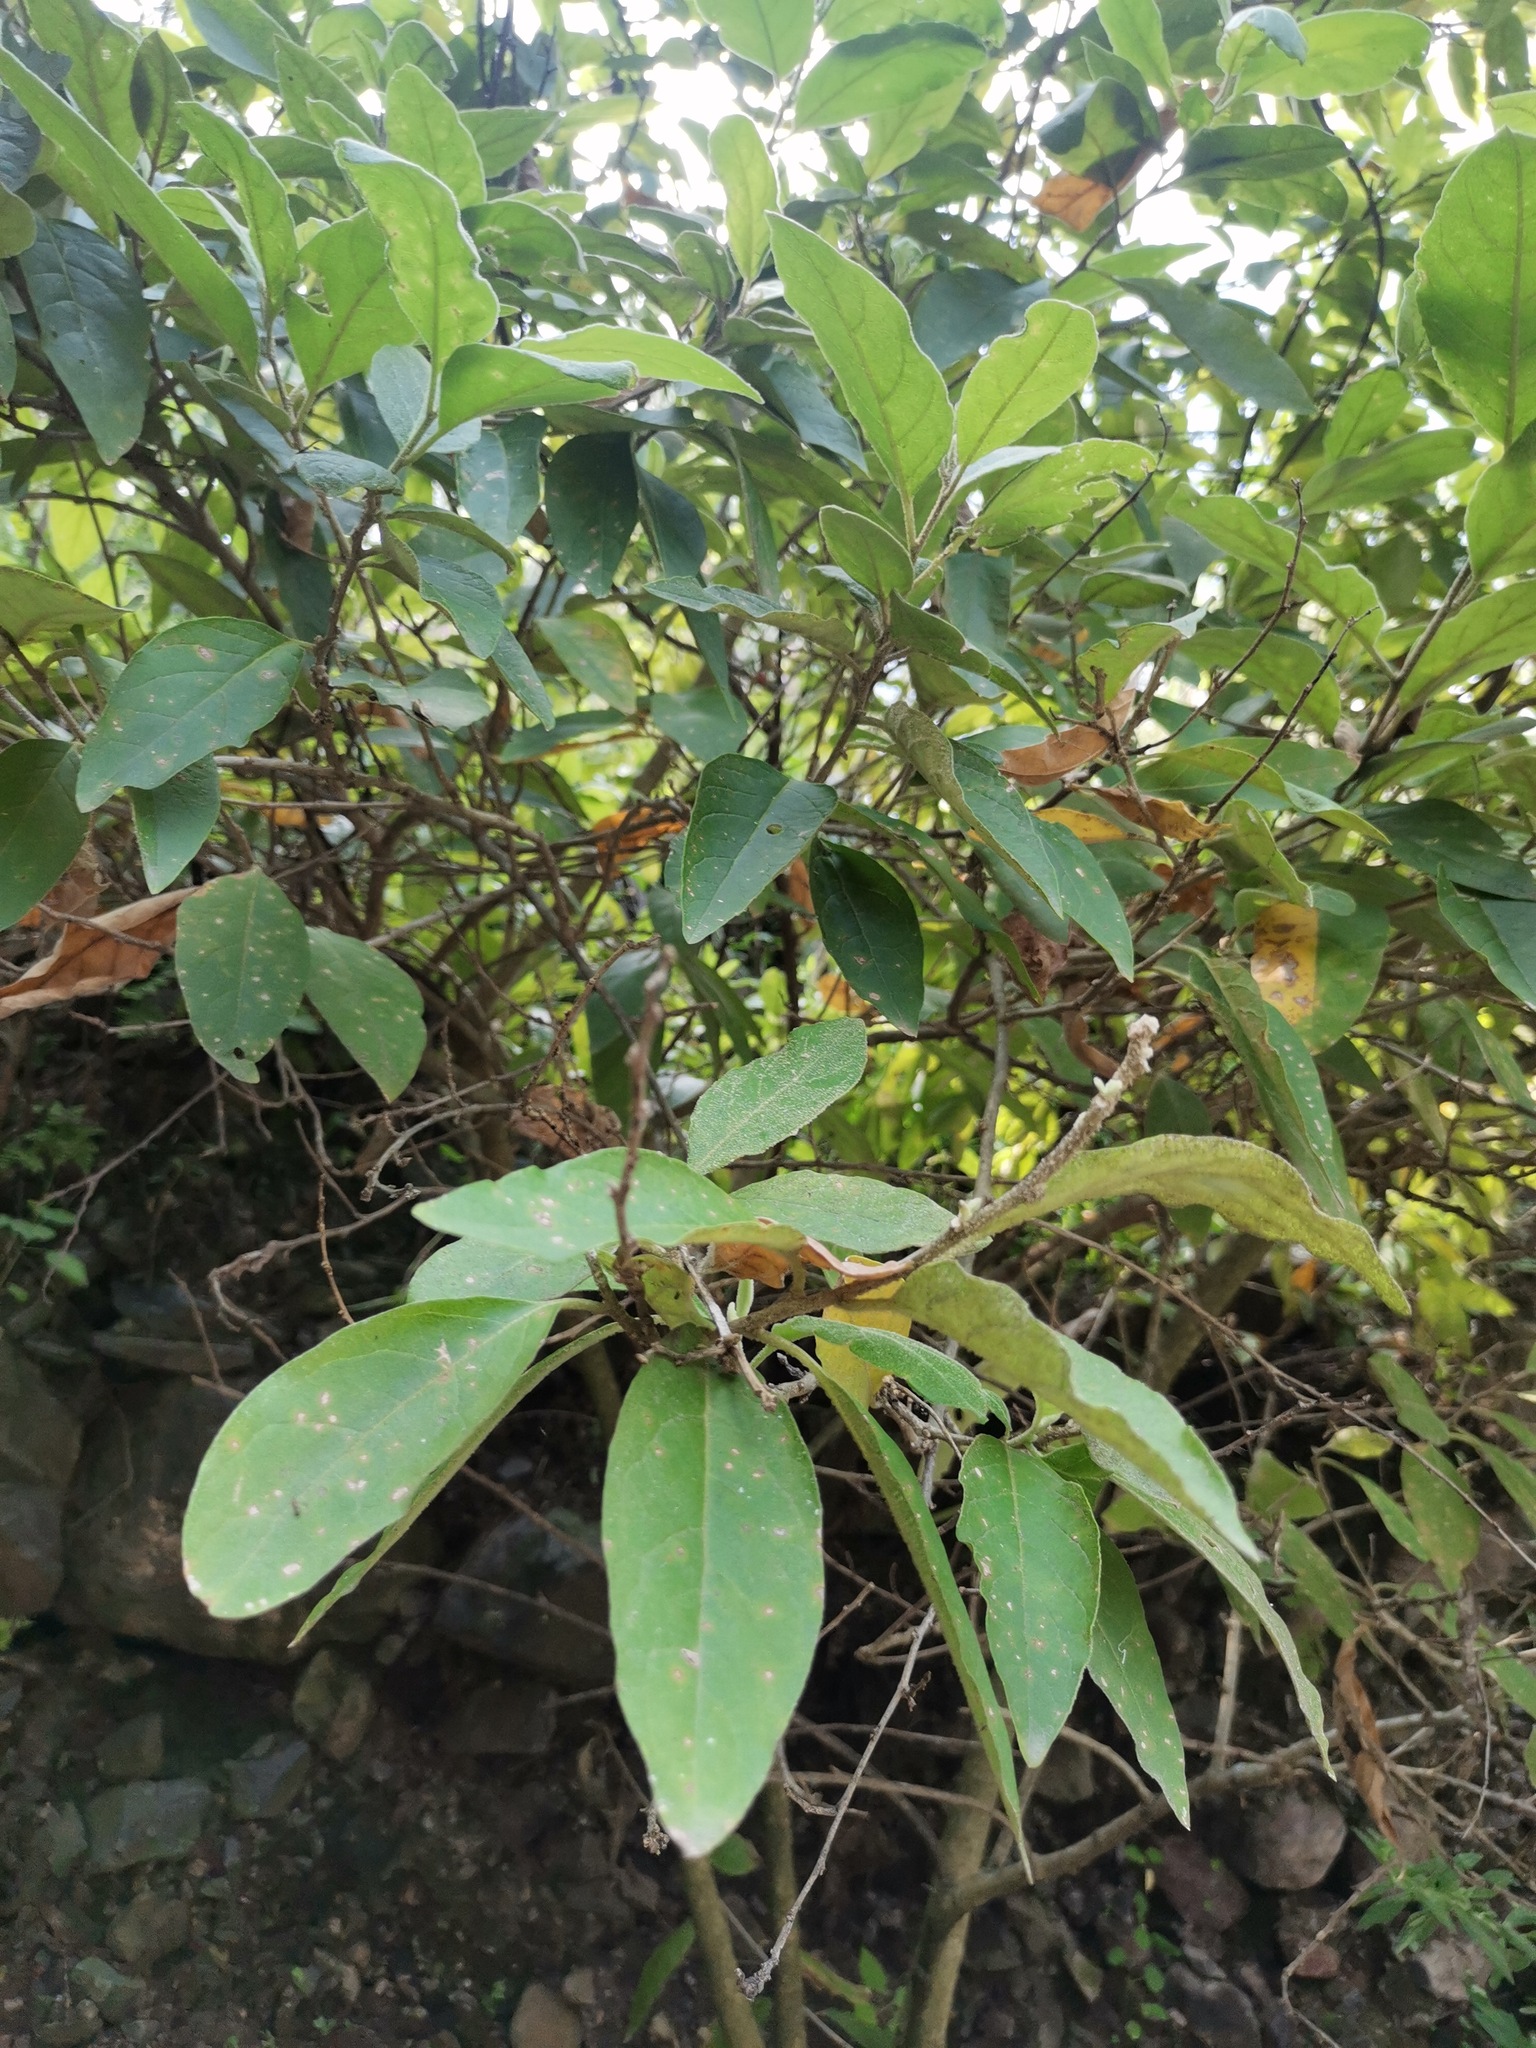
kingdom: Plantae
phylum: Tracheophyta
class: Magnoliopsida
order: Lamiales
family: Scrophulariaceae
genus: Buddleja
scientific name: Buddleja cordata
